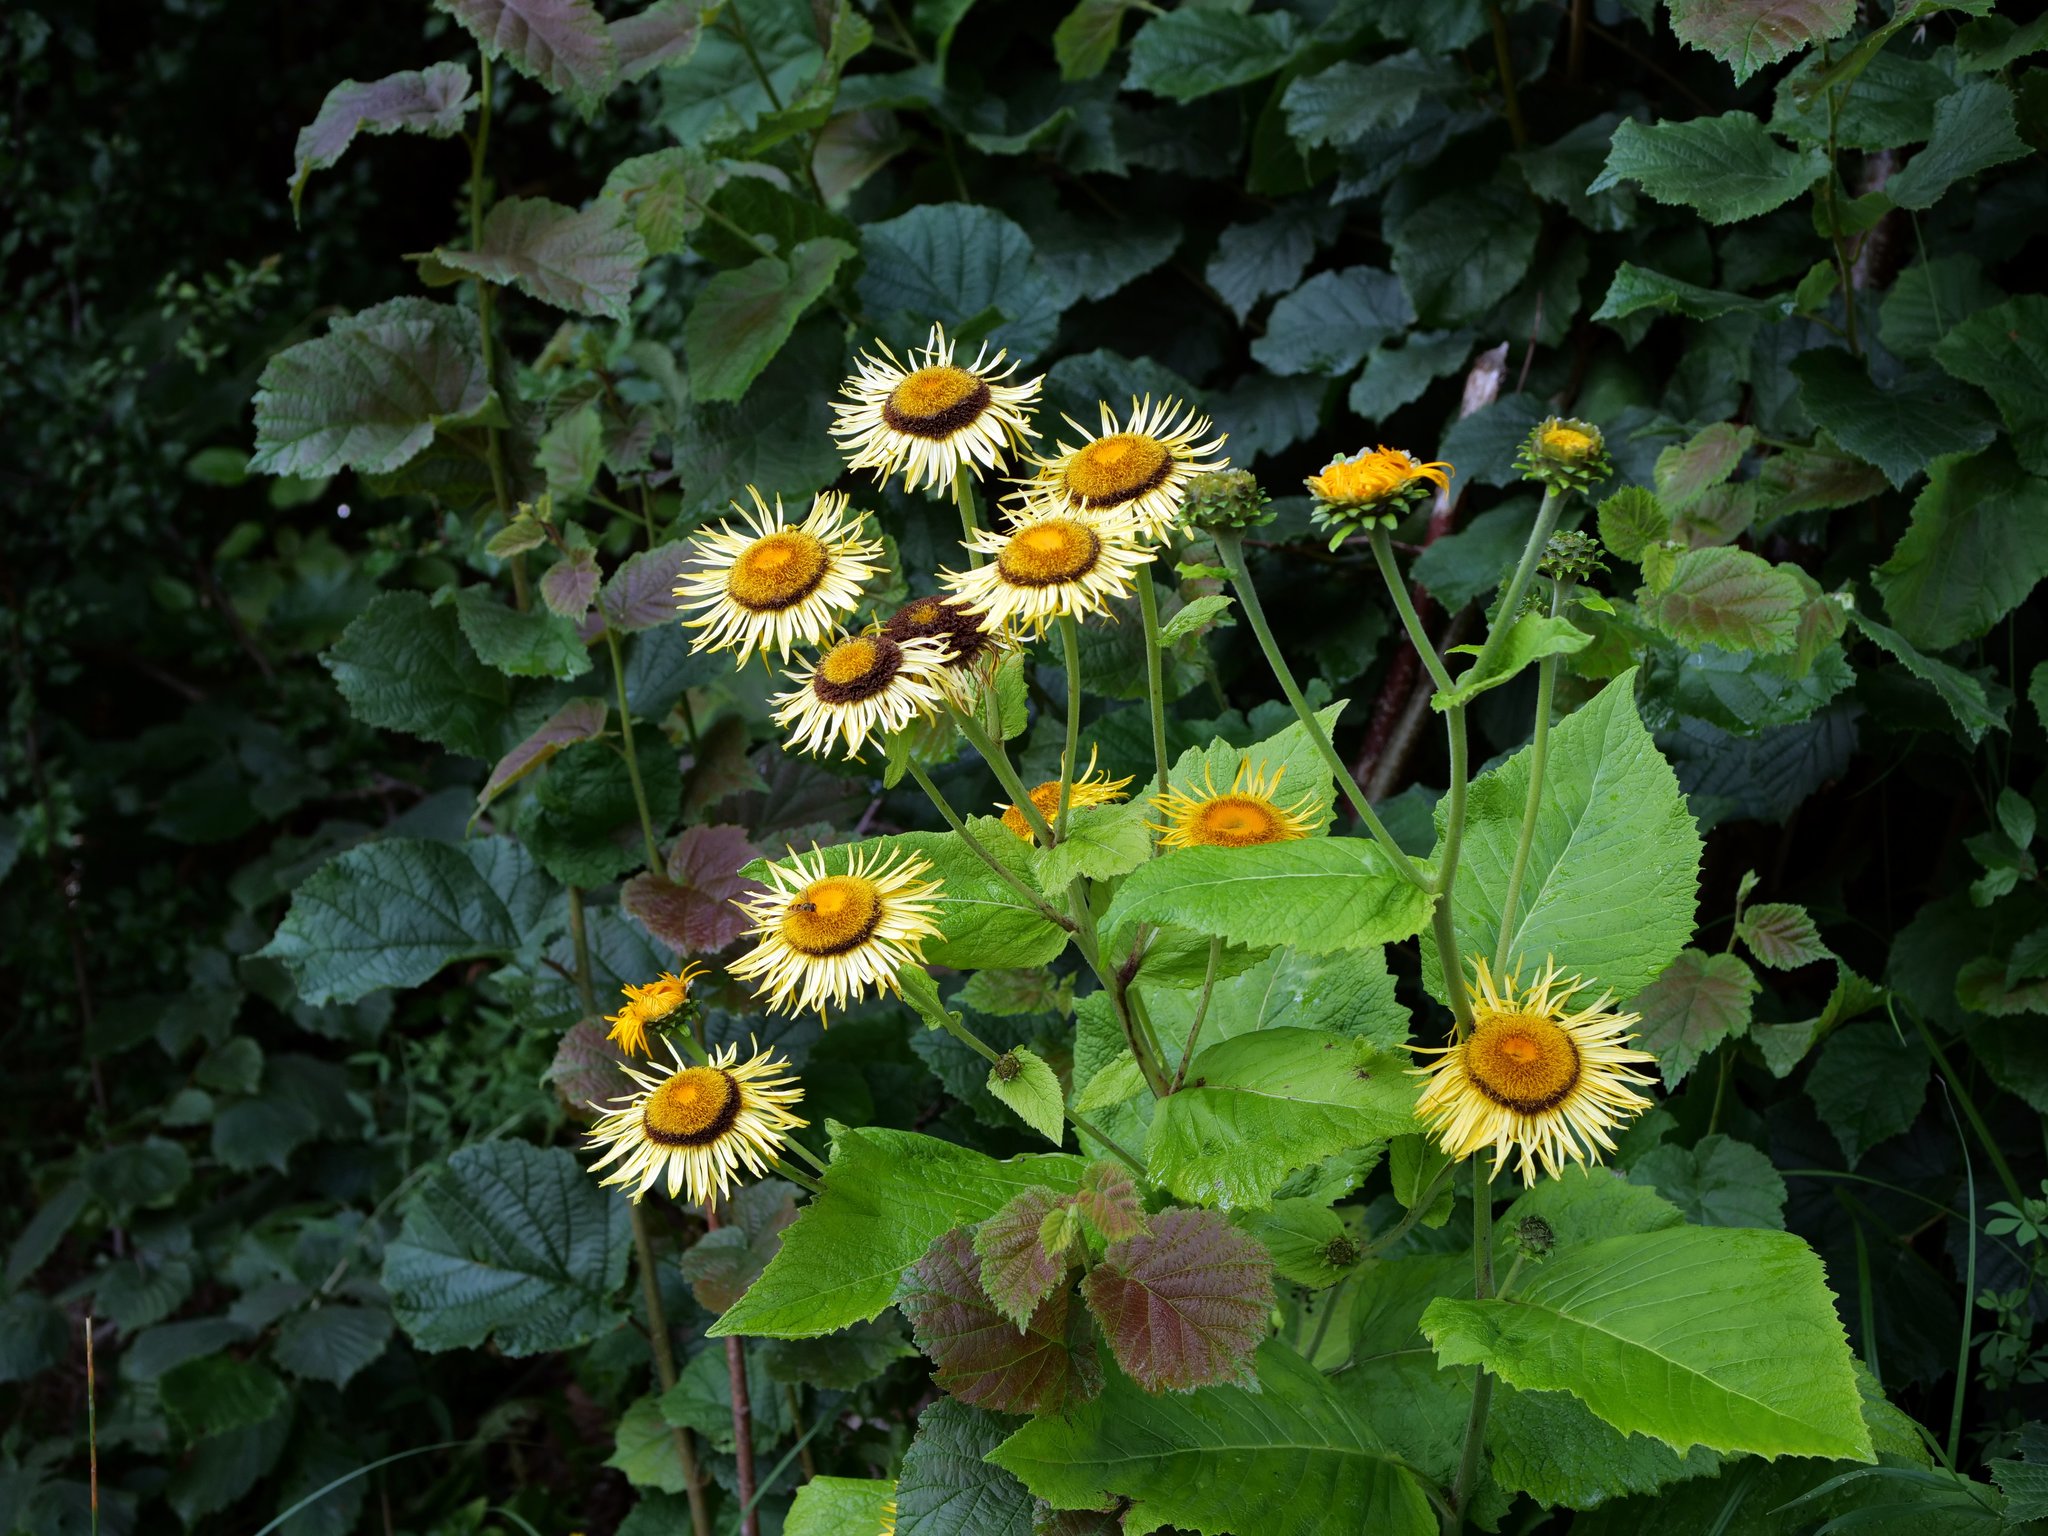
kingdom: Plantae
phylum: Tracheophyta
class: Magnoliopsida
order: Asterales
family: Asteraceae
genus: Telekia
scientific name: Telekia speciosa
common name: Yellow oxeye
